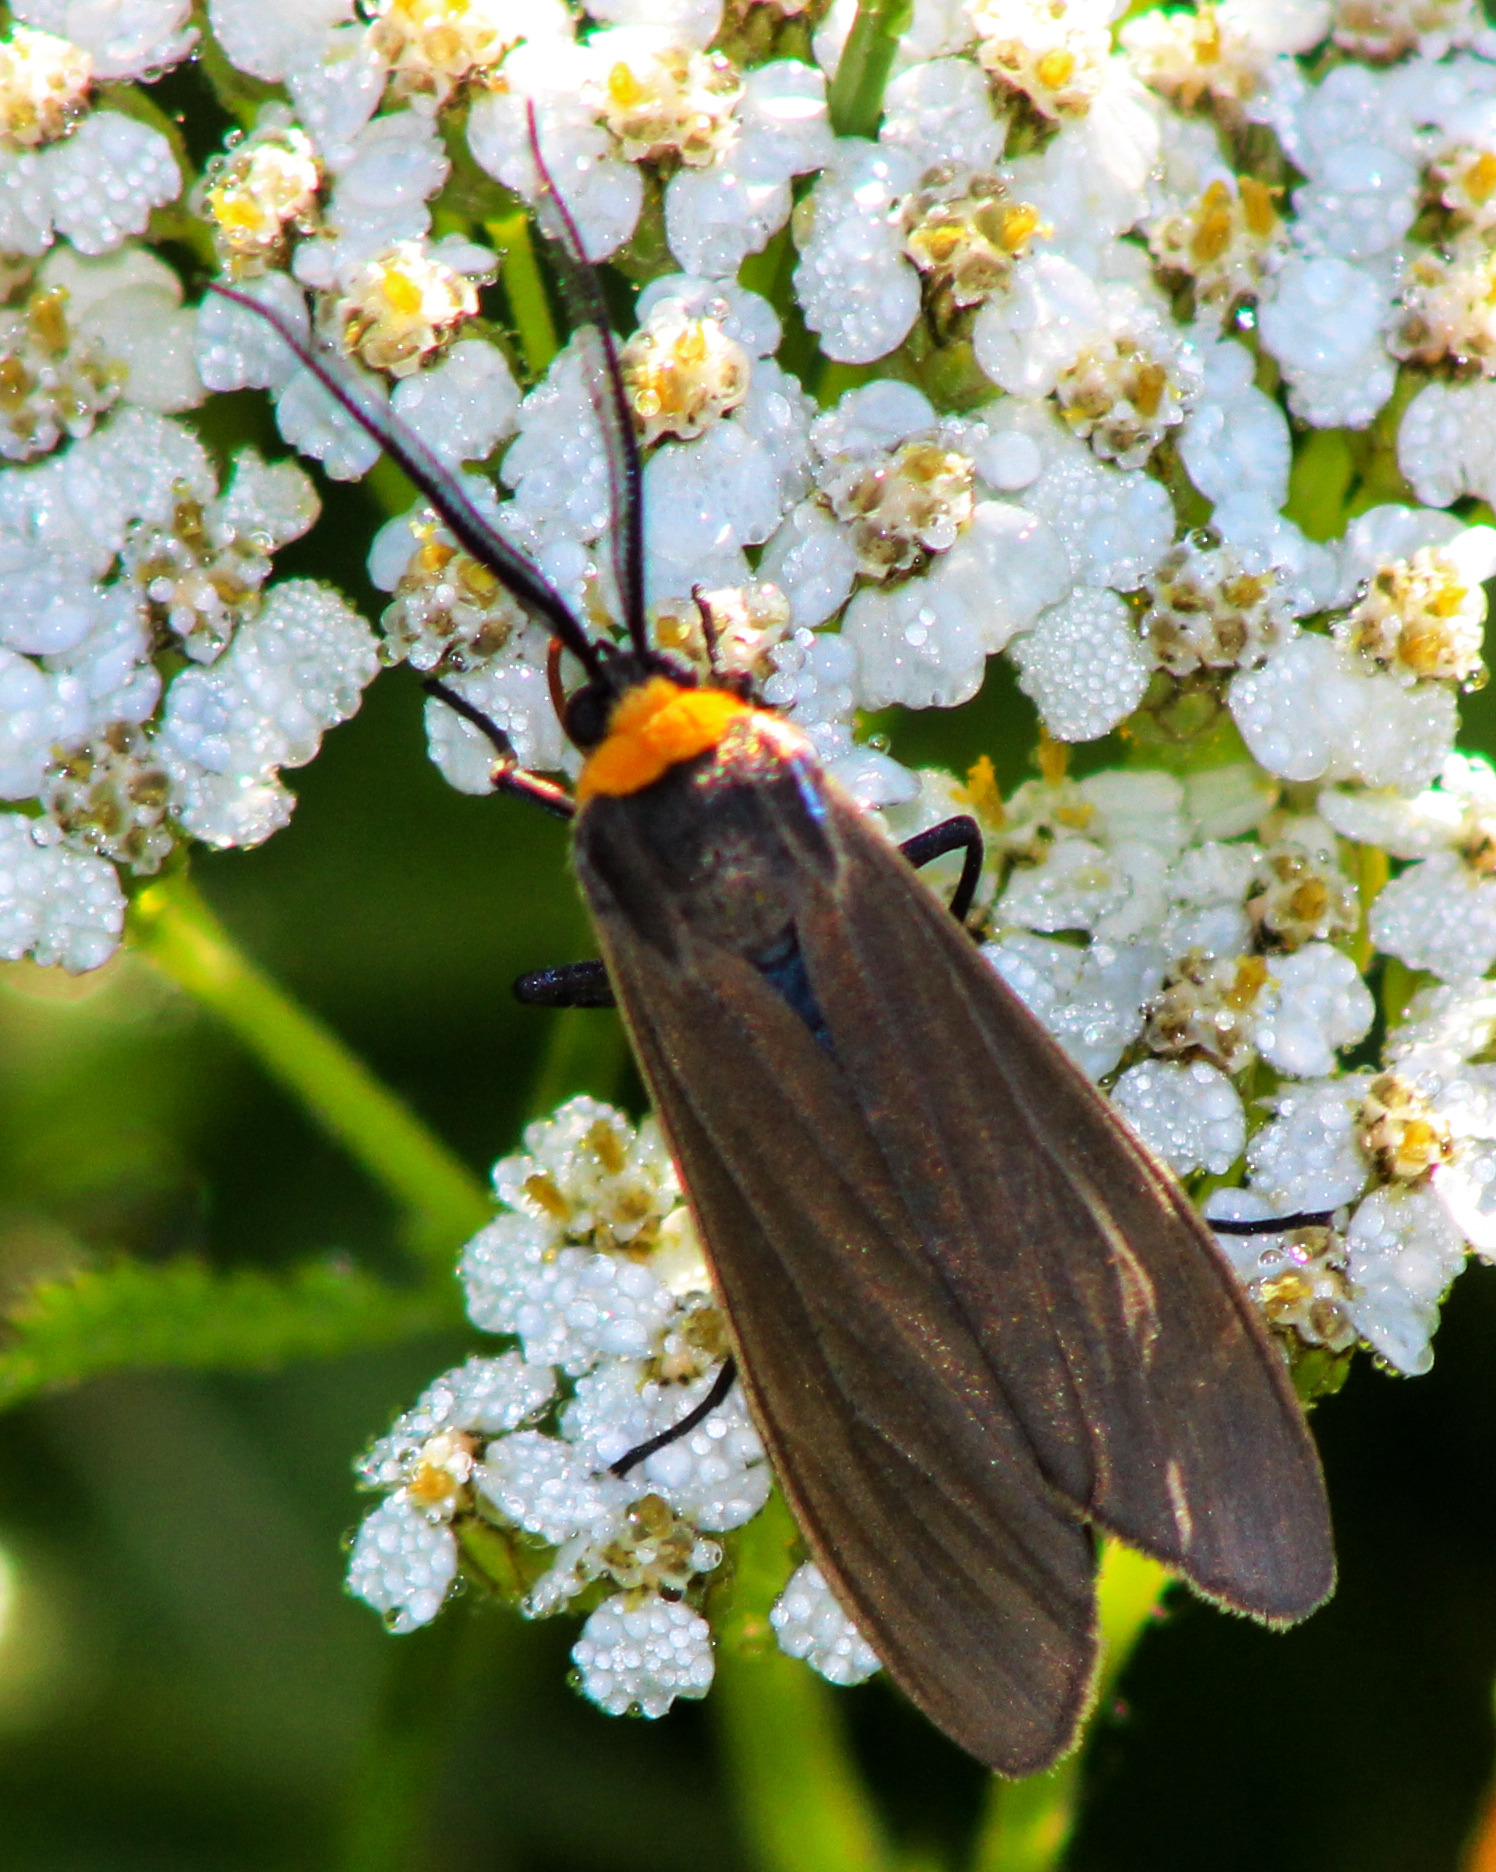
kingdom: Animalia
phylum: Arthropoda
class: Insecta
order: Lepidoptera
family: Erebidae
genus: Cisseps
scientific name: Cisseps fulvicollis
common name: Yellow-collared scape moth
